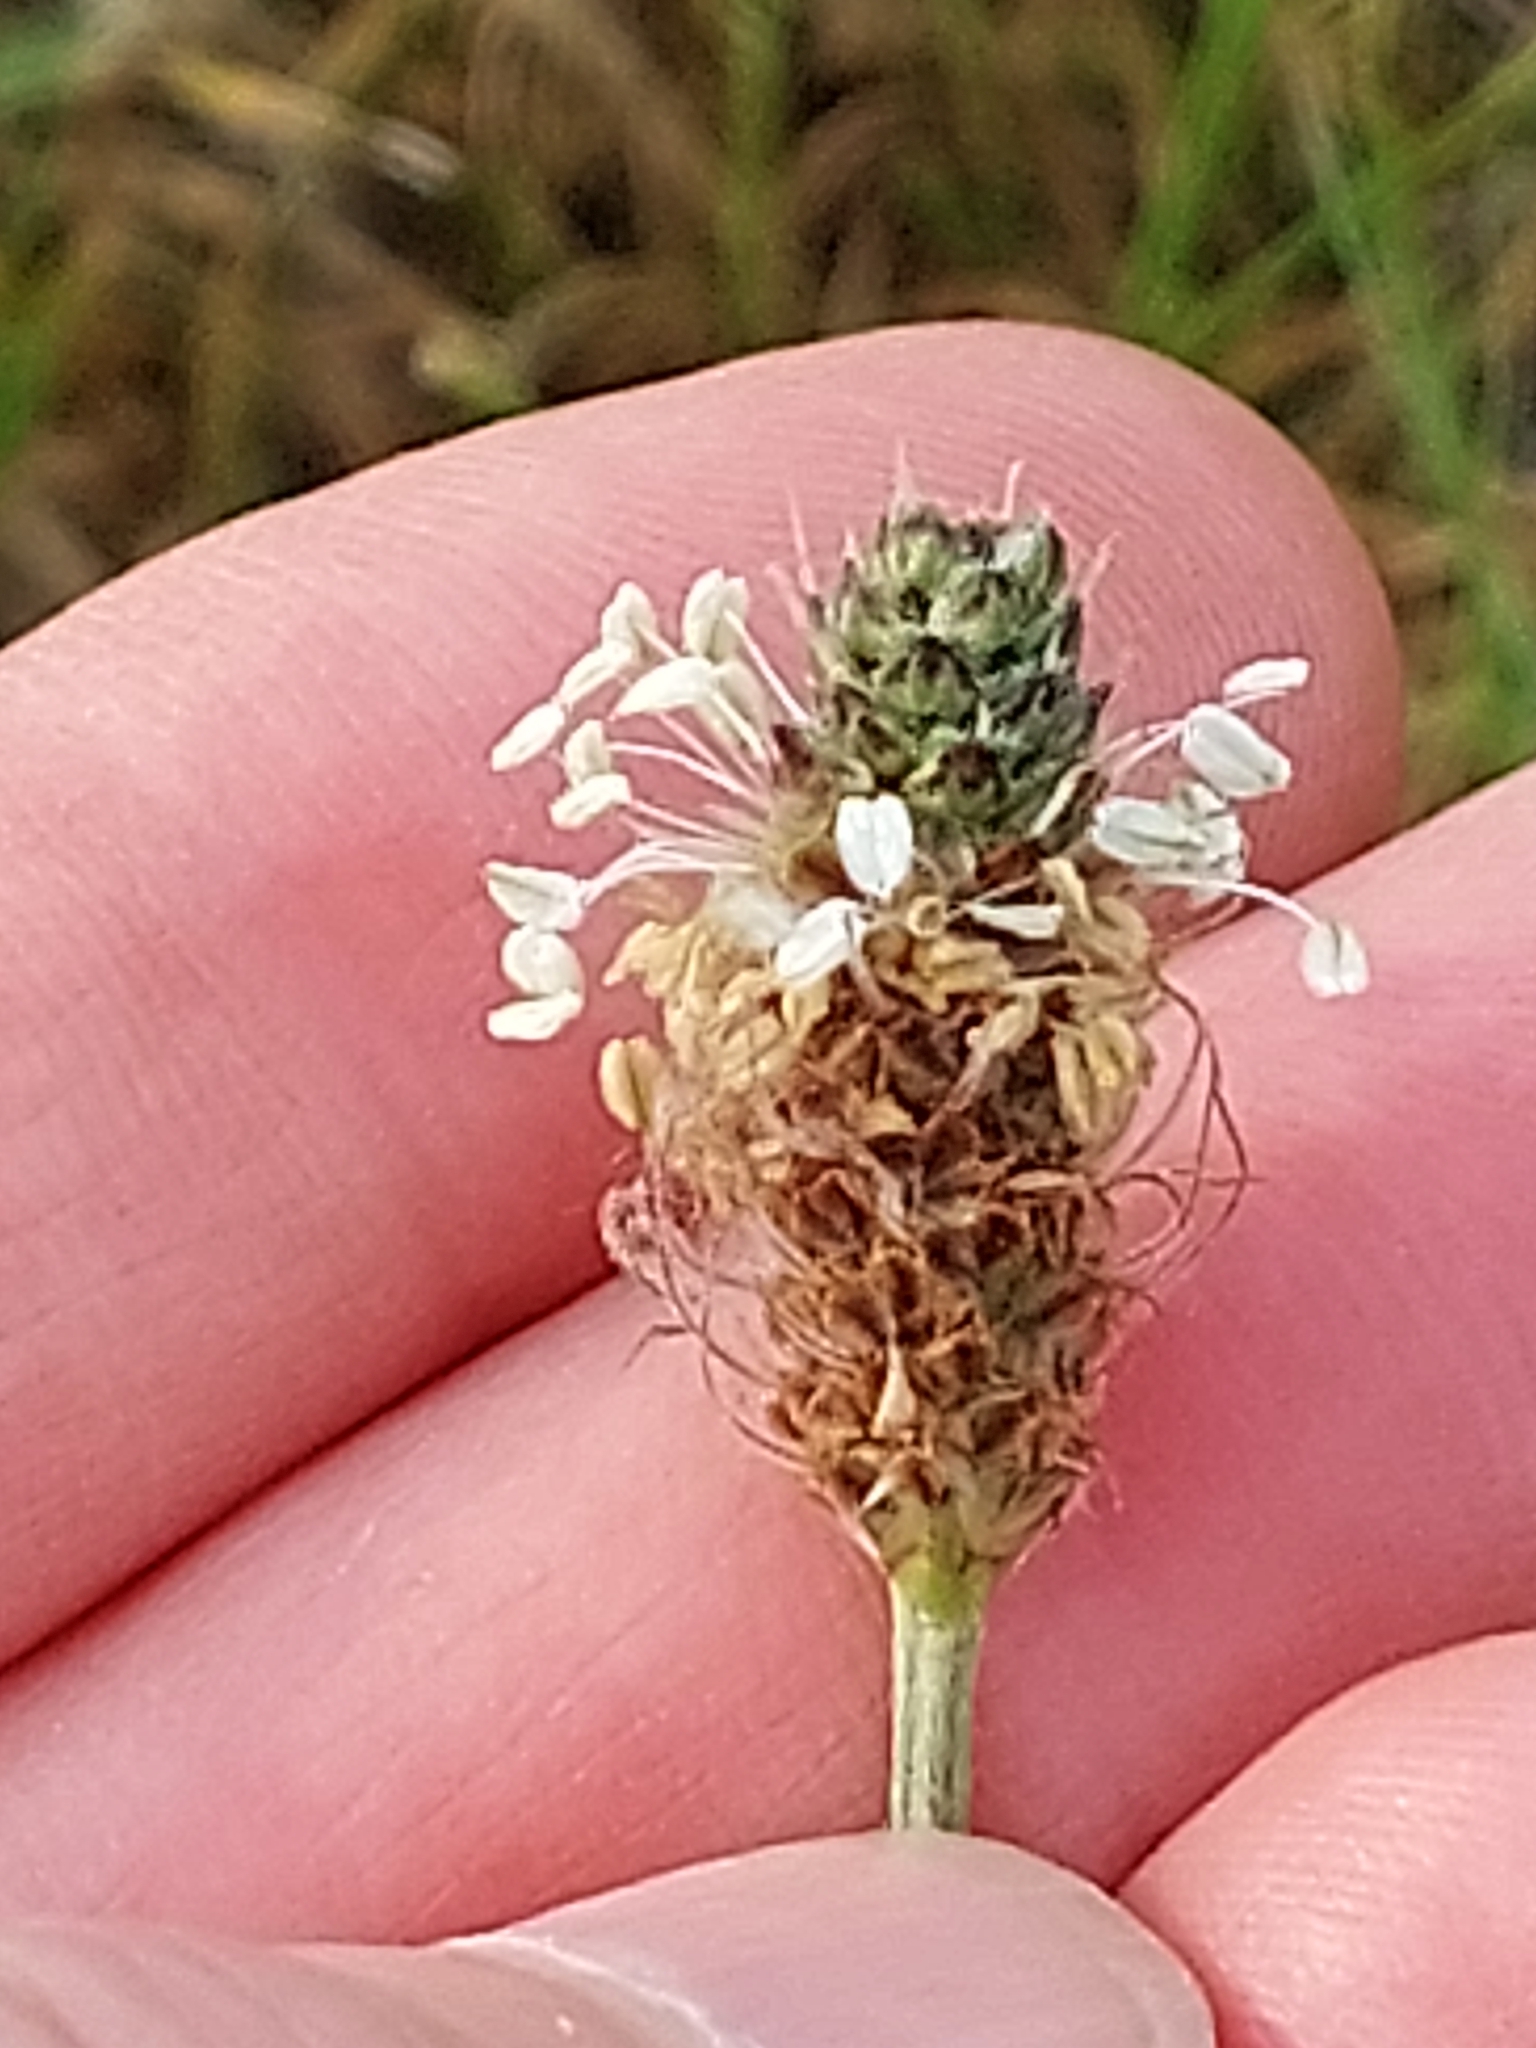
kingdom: Plantae
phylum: Tracheophyta
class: Magnoliopsida
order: Lamiales
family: Plantaginaceae
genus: Plantago
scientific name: Plantago lanceolata
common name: Ribwort plantain
